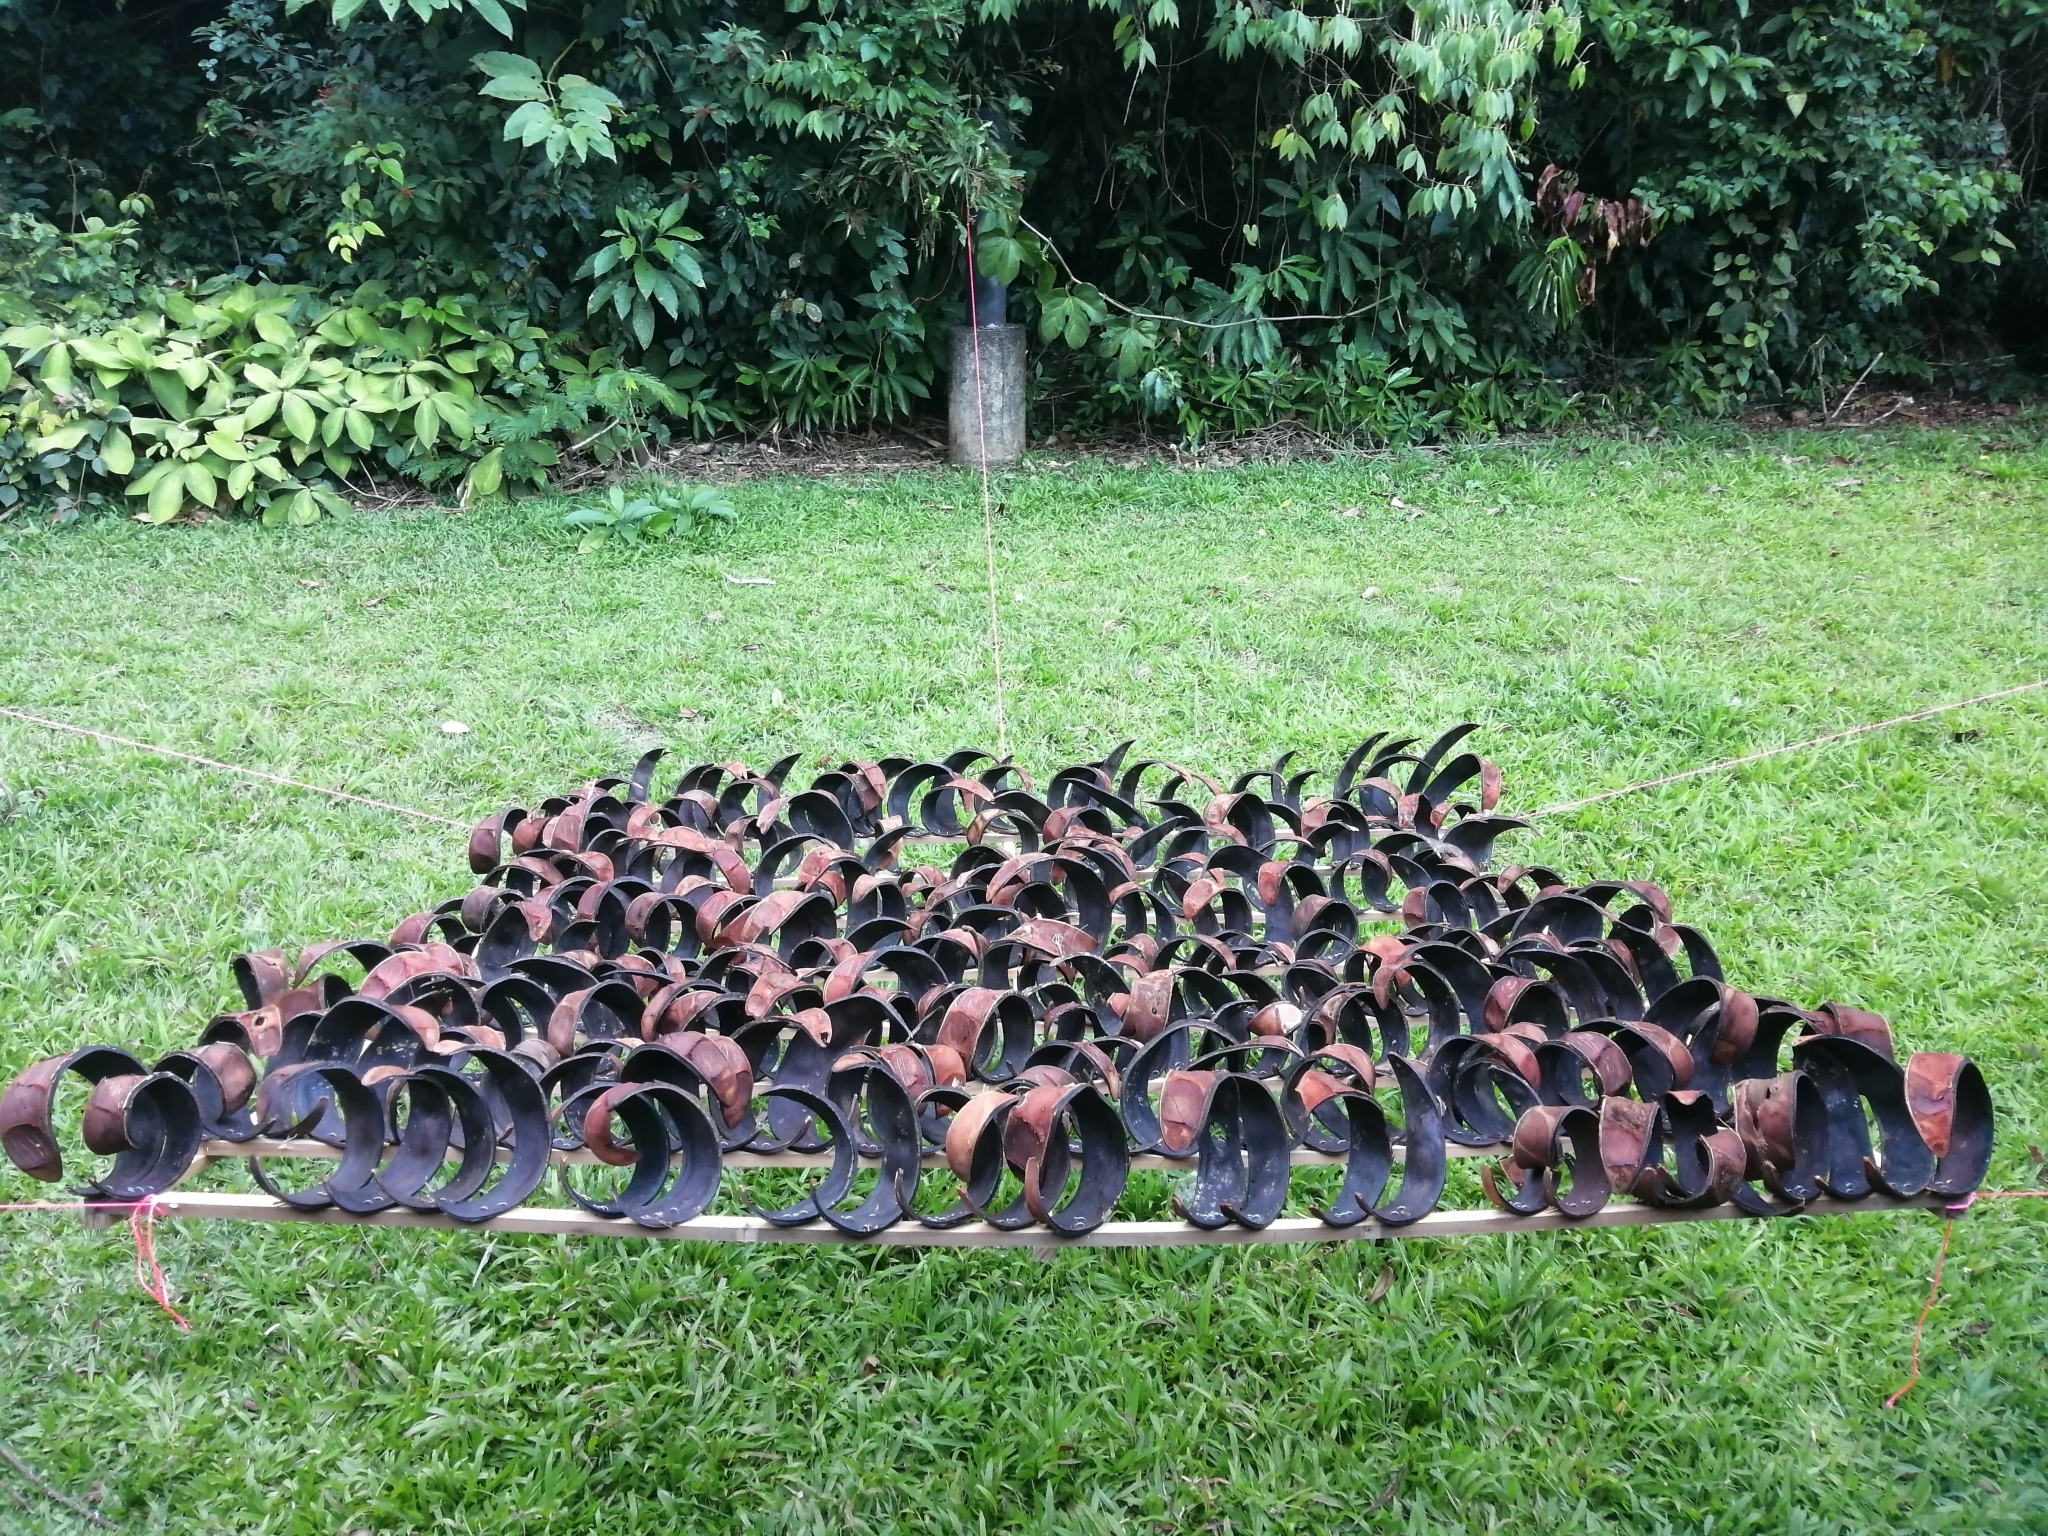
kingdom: Plantae
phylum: Tracheophyta
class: Magnoliopsida
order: Fabales
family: Fabaceae
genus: Pentaclethra
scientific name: Pentaclethra macroloba
